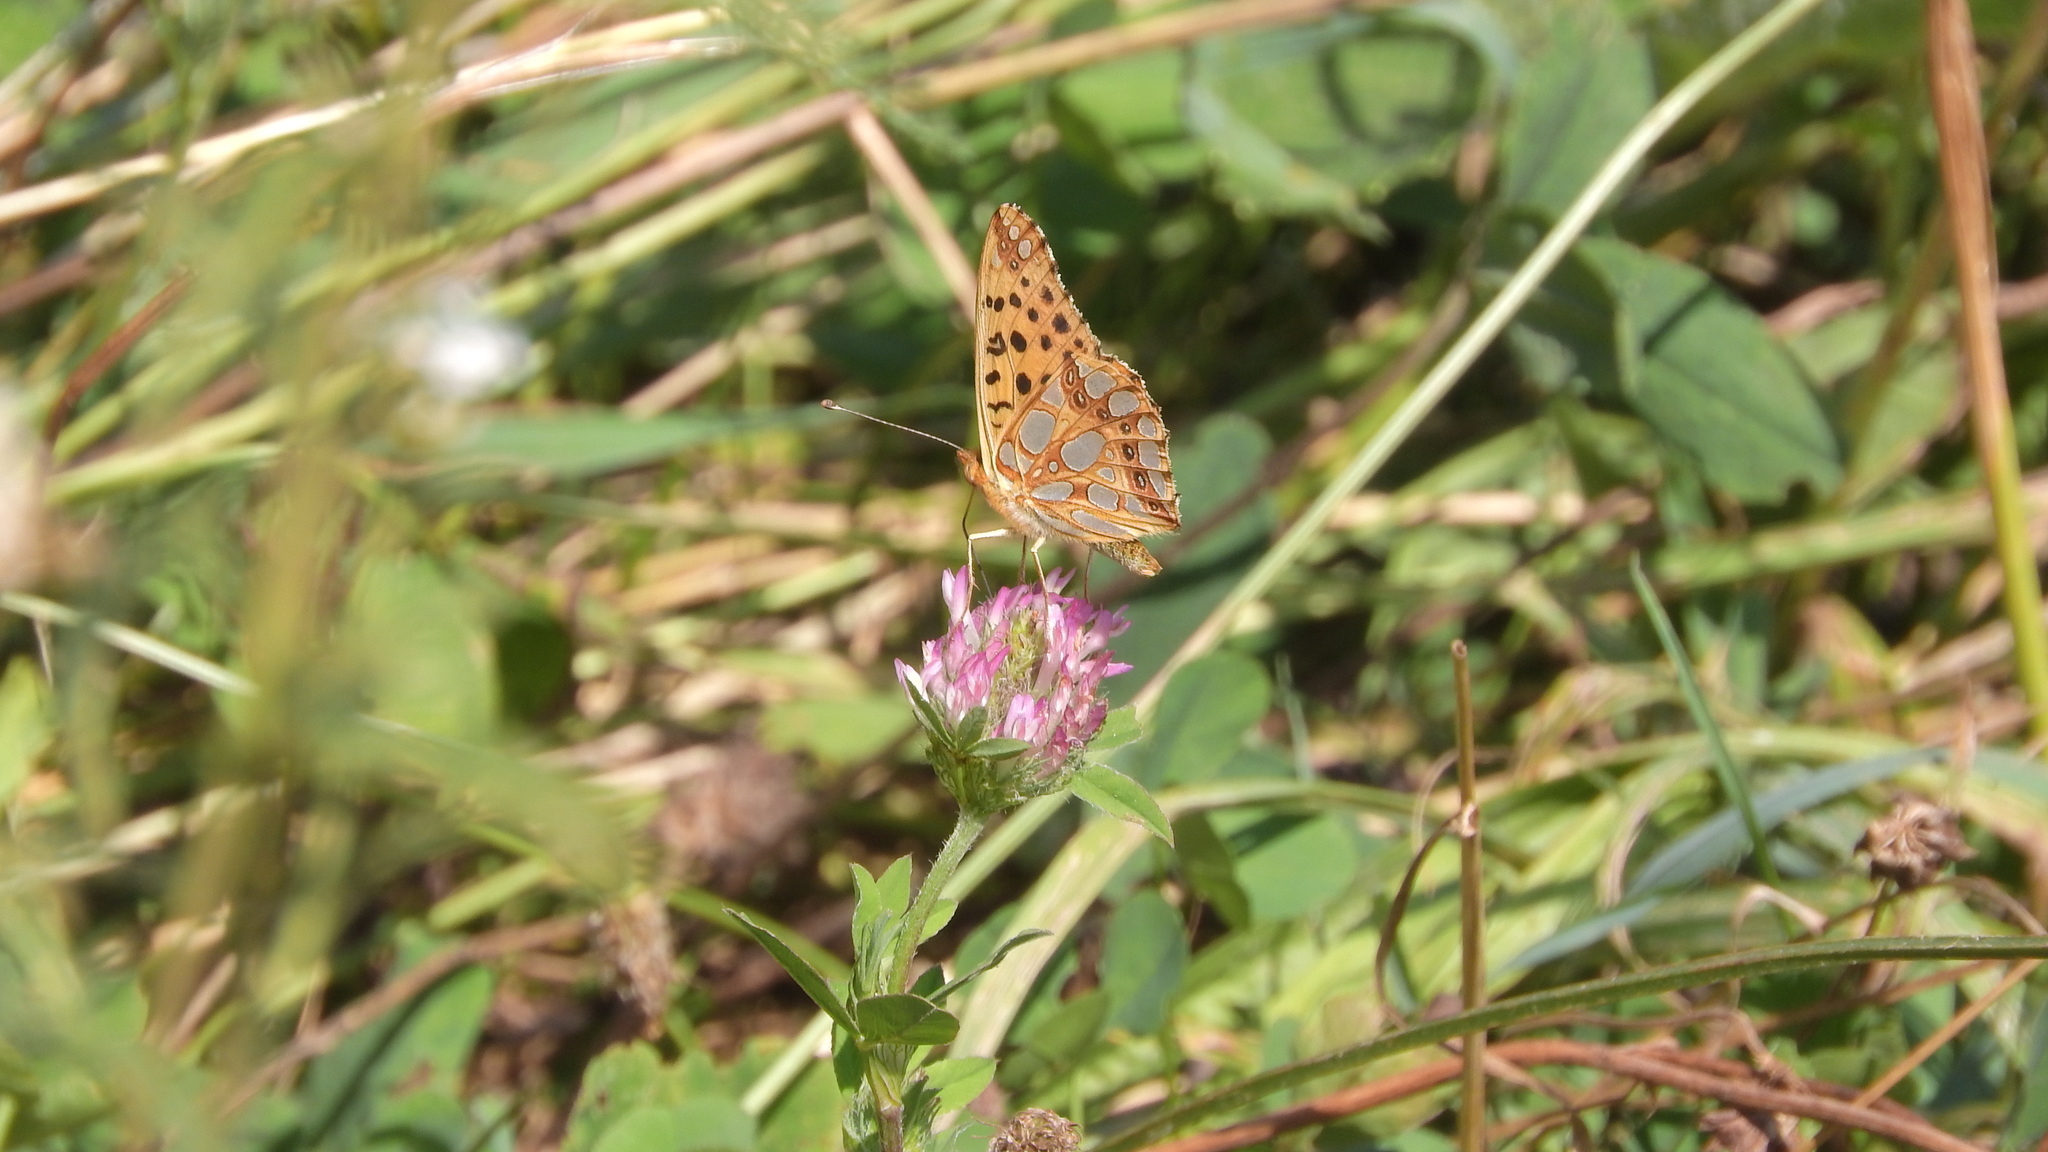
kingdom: Animalia
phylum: Arthropoda
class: Insecta
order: Lepidoptera
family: Nymphalidae
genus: Issoria
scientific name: Issoria lathonia
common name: Queen of spain fritillary
